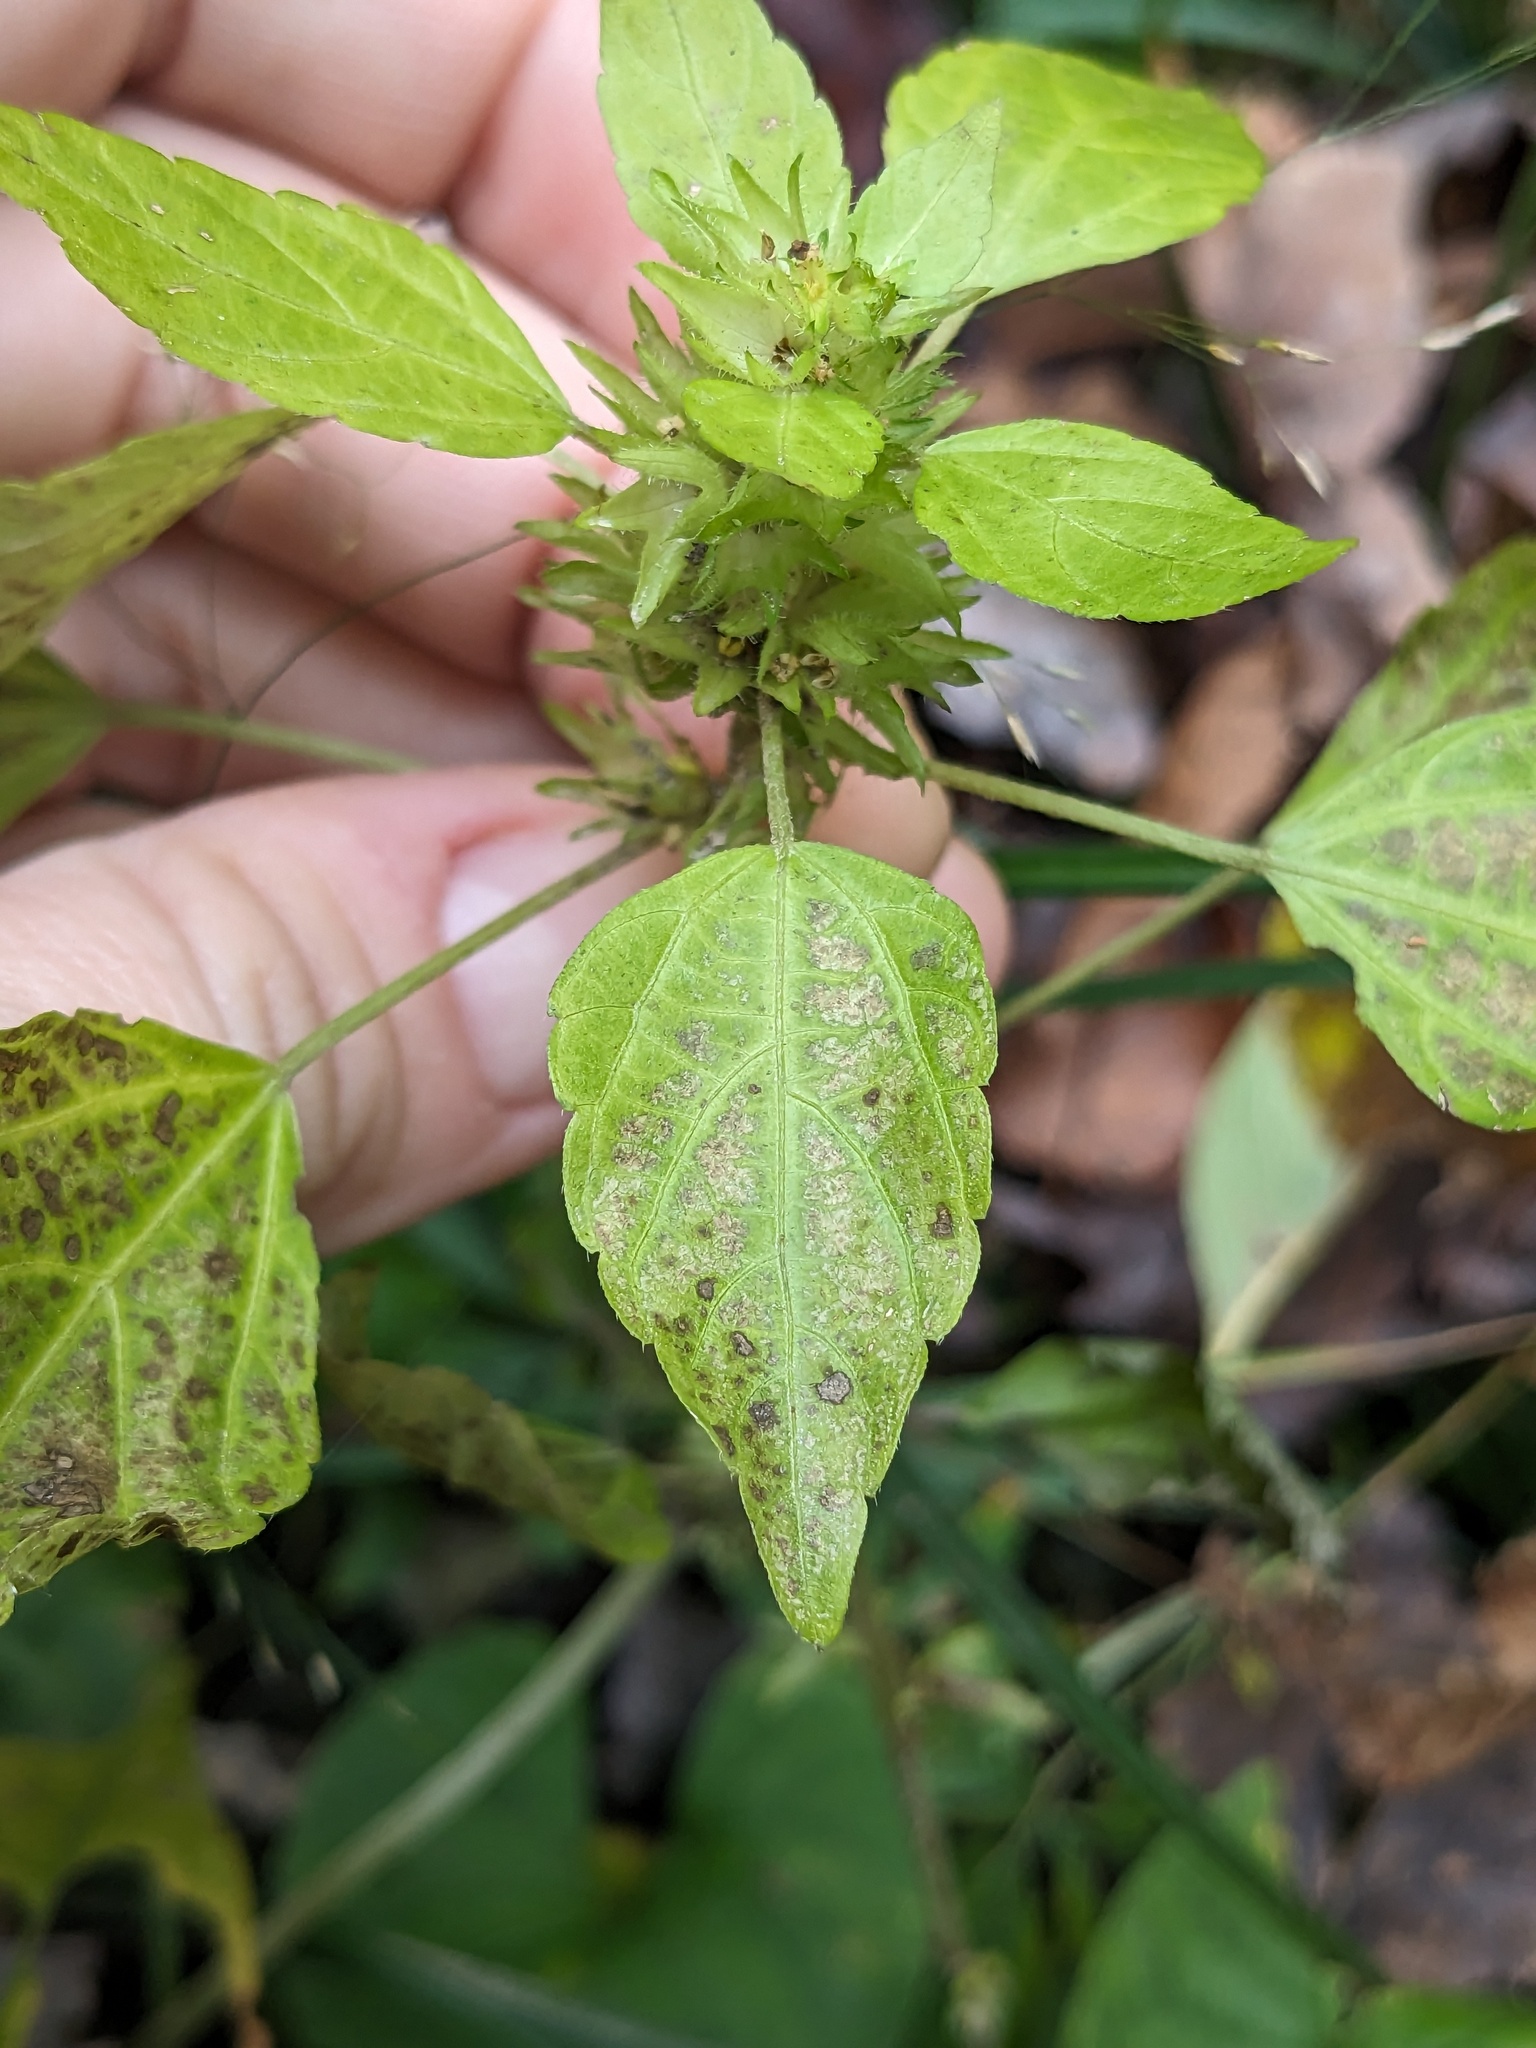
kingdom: Plantae
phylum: Tracheophyta
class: Magnoliopsida
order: Malpighiales
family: Euphorbiaceae
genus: Acalypha
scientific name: Acalypha rhomboidea
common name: Rhombic copperleaf
